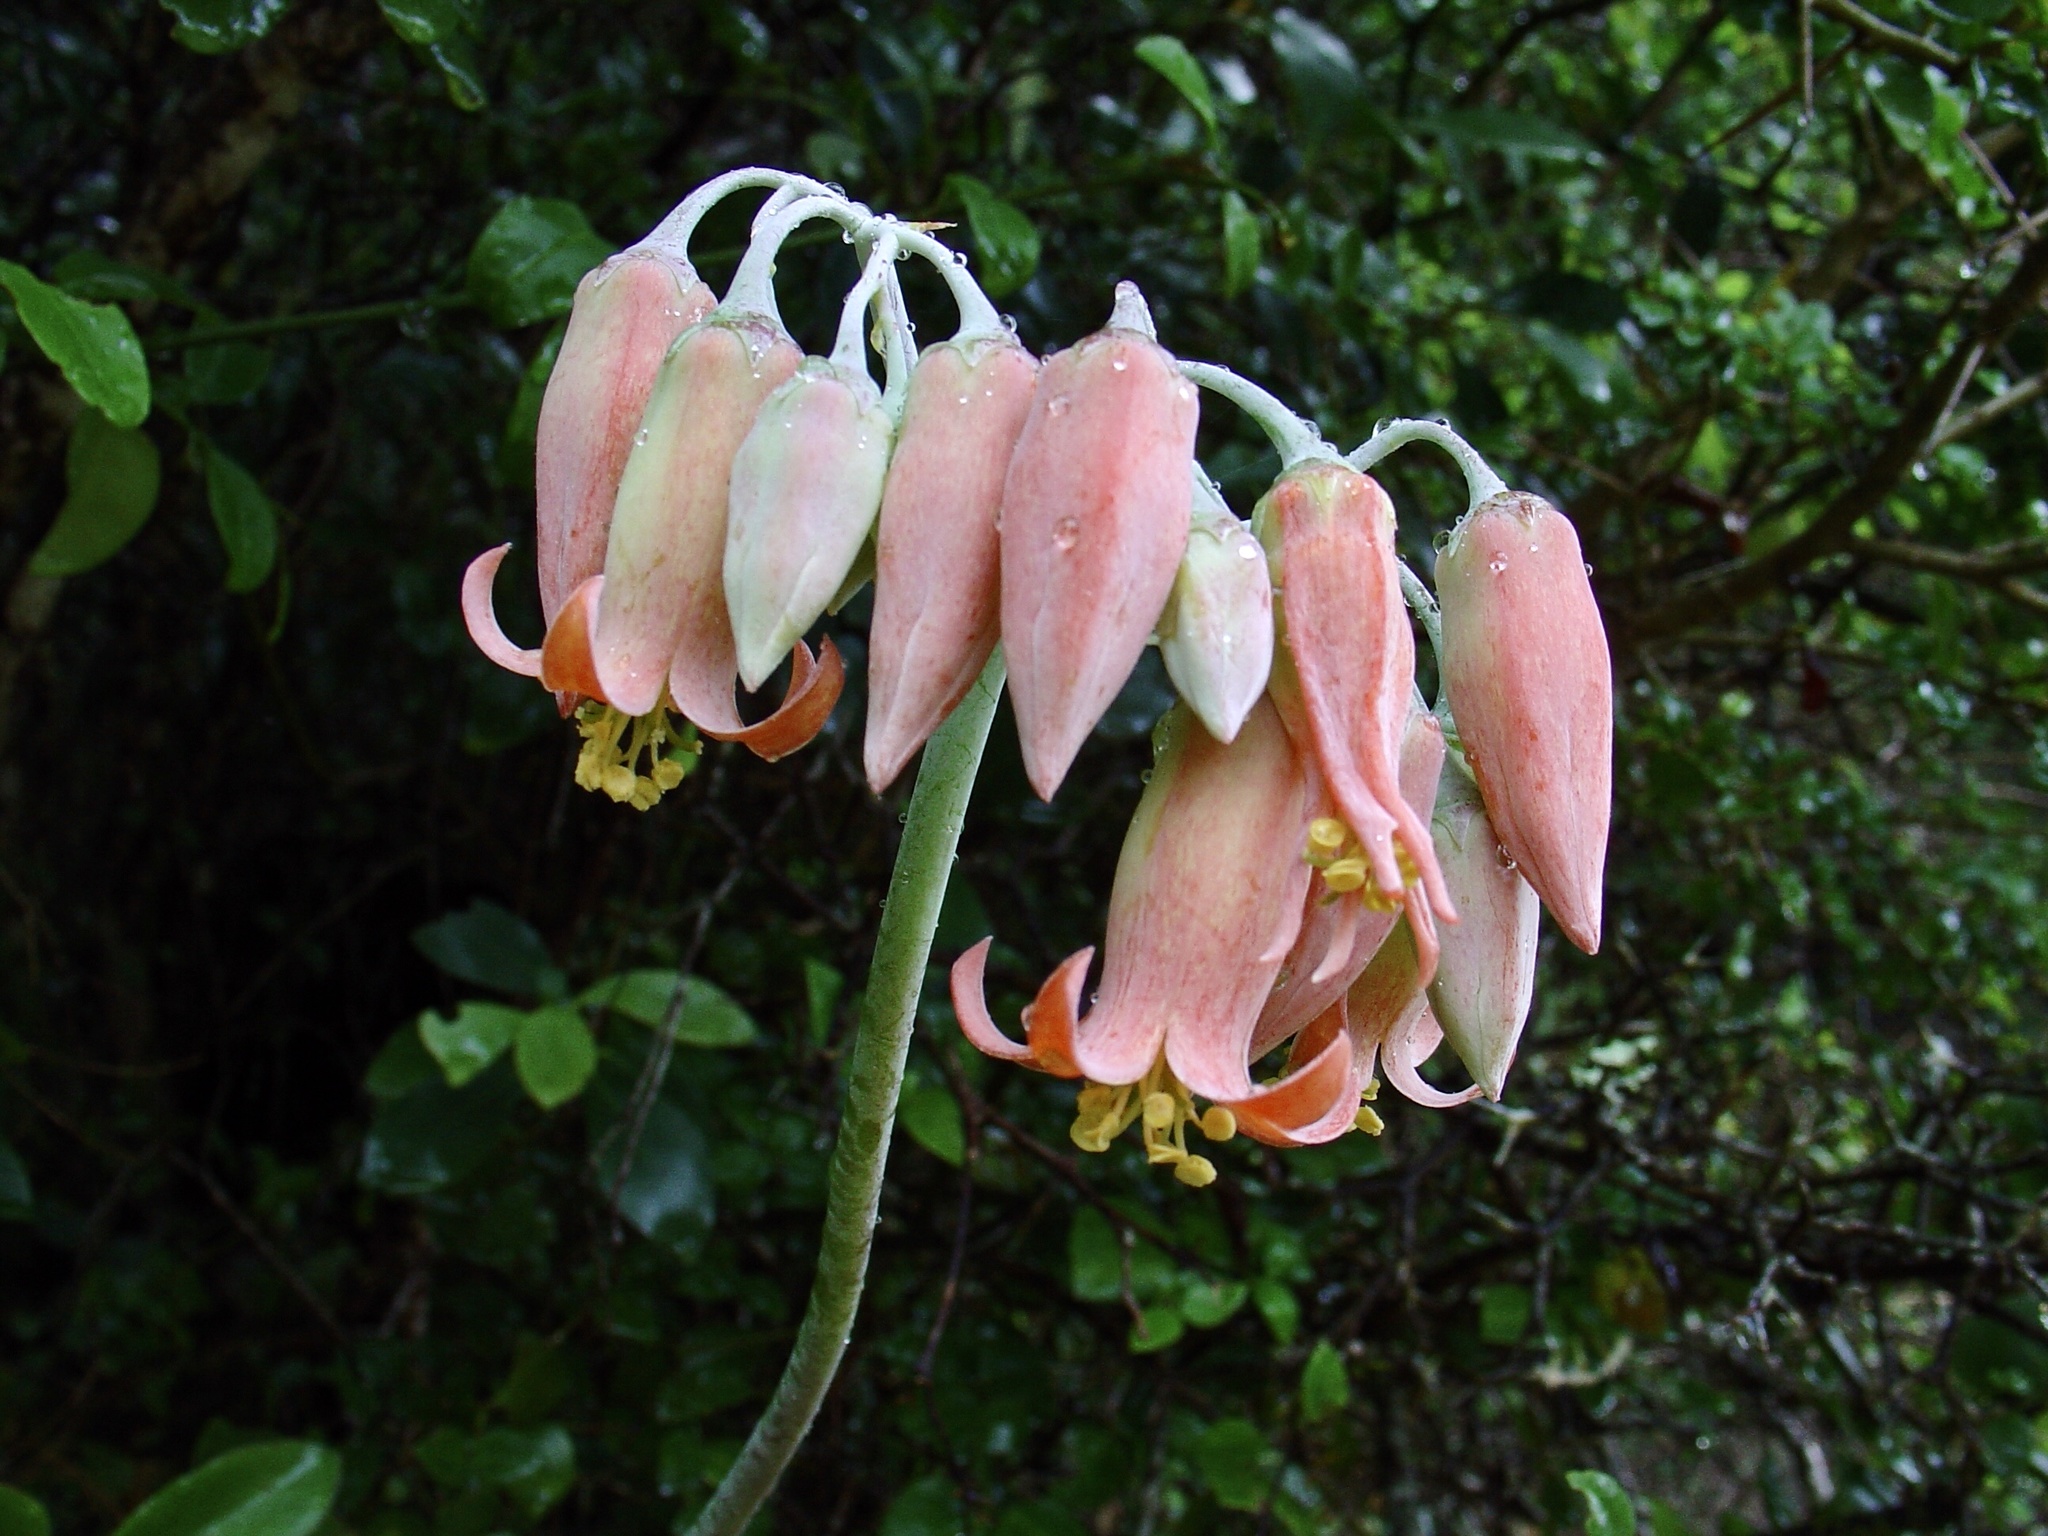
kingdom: Plantae
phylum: Tracheophyta
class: Magnoliopsida
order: Saxifragales
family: Crassulaceae
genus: Cotyledon
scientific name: Cotyledon orbiculata
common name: Pig's ear
